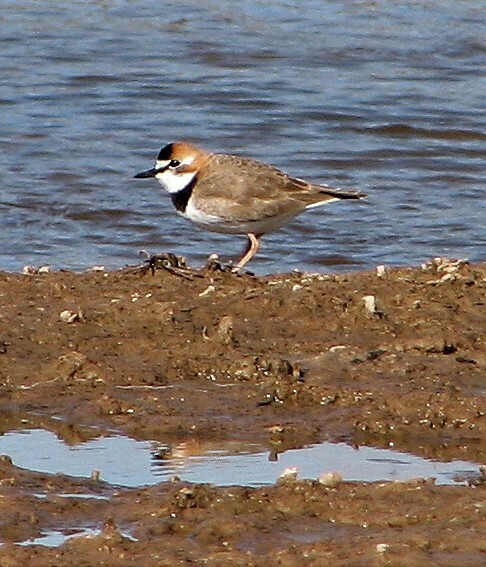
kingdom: Animalia
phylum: Chordata
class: Aves
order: Charadriiformes
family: Charadriidae
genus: Anarhynchus
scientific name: Anarhynchus
